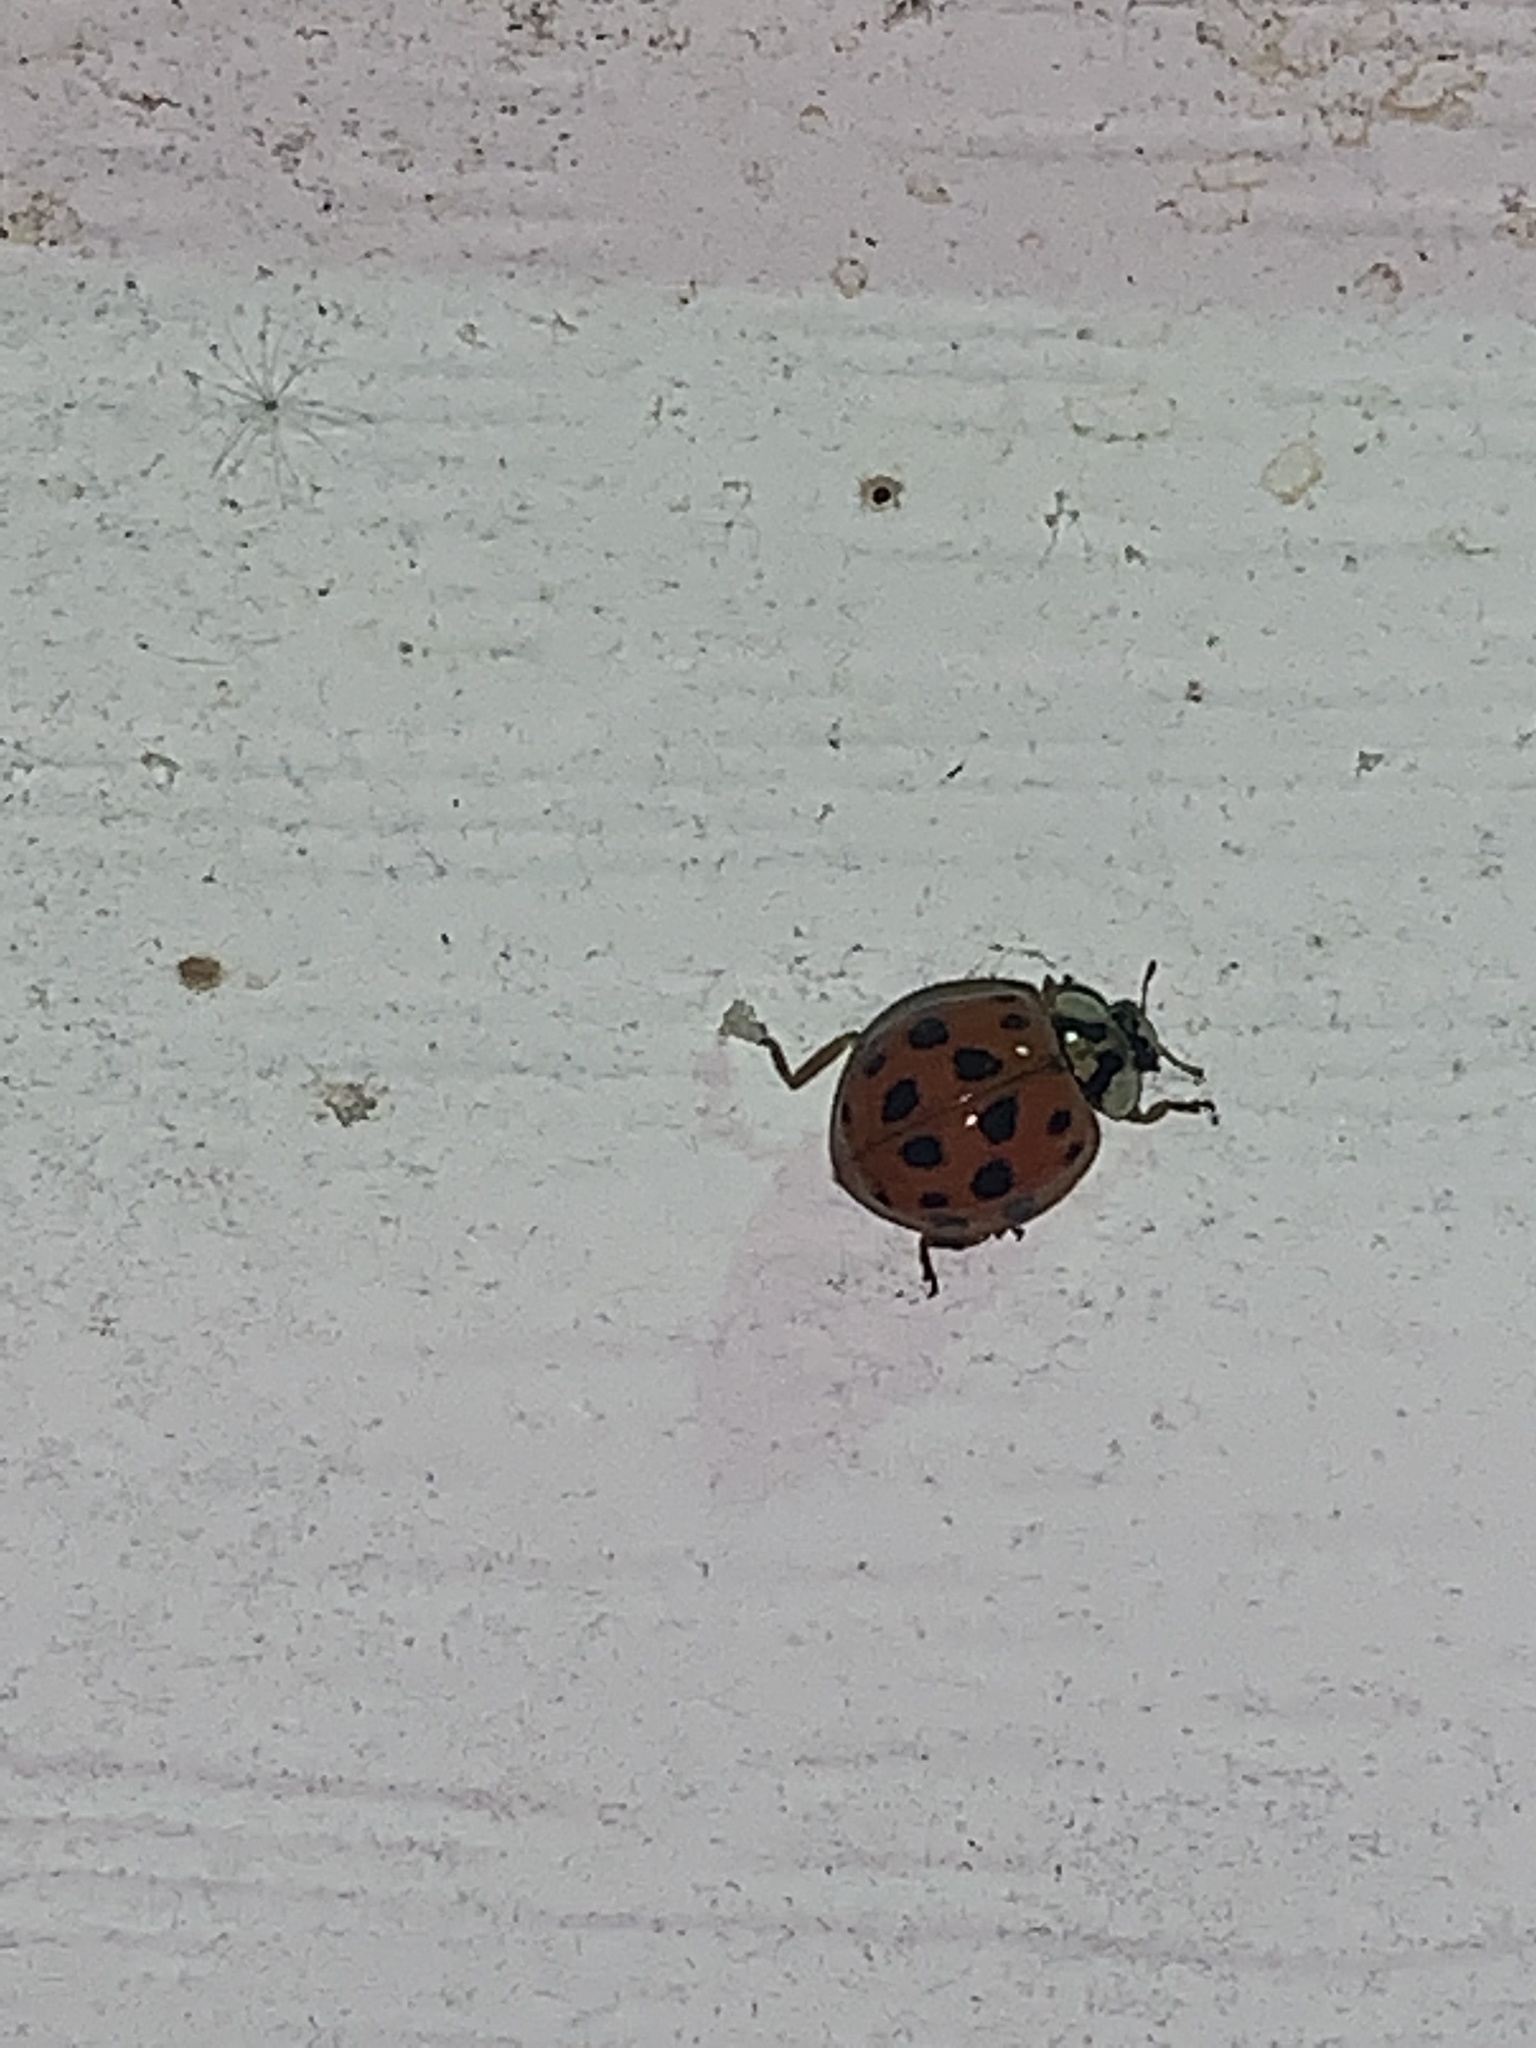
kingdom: Animalia
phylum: Arthropoda
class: Insecta
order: Coleoptera
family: Coccinellidae
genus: Harmonia
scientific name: Harmonia axyridis
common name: Harlequin ladybird
